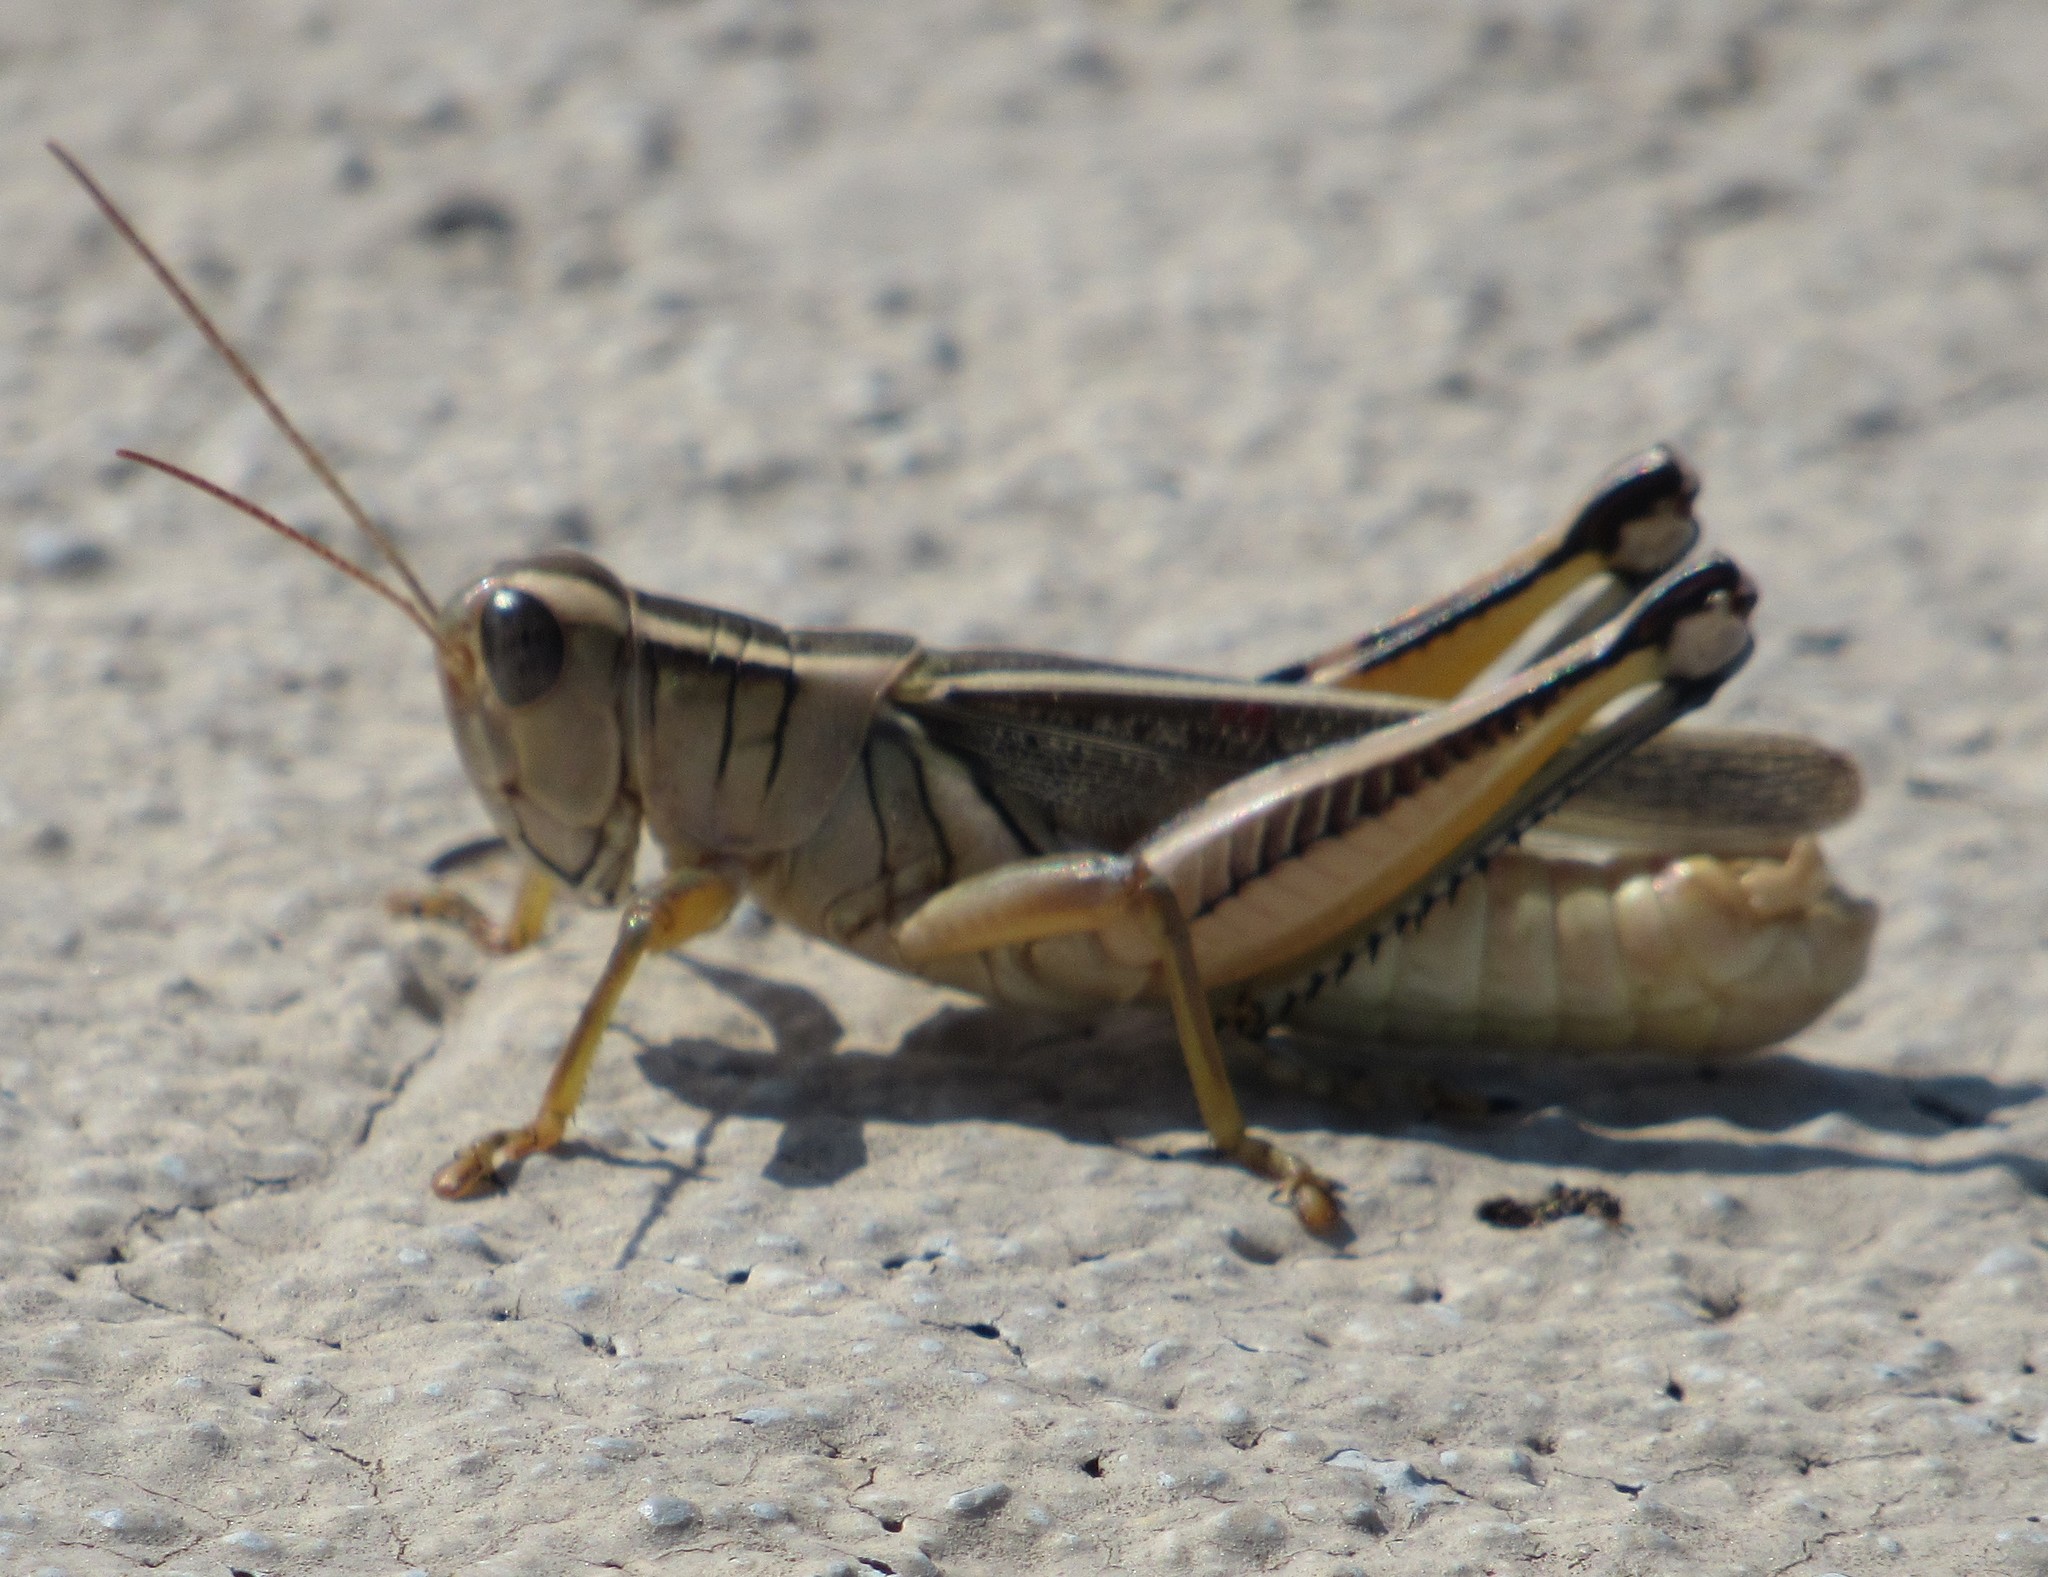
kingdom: Animalia
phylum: Arthropoda
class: Insecta
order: Orthoptera
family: Acrididae
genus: Melanoplus
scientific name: Melanoplus bivittatus
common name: Two-striped grasshopper
